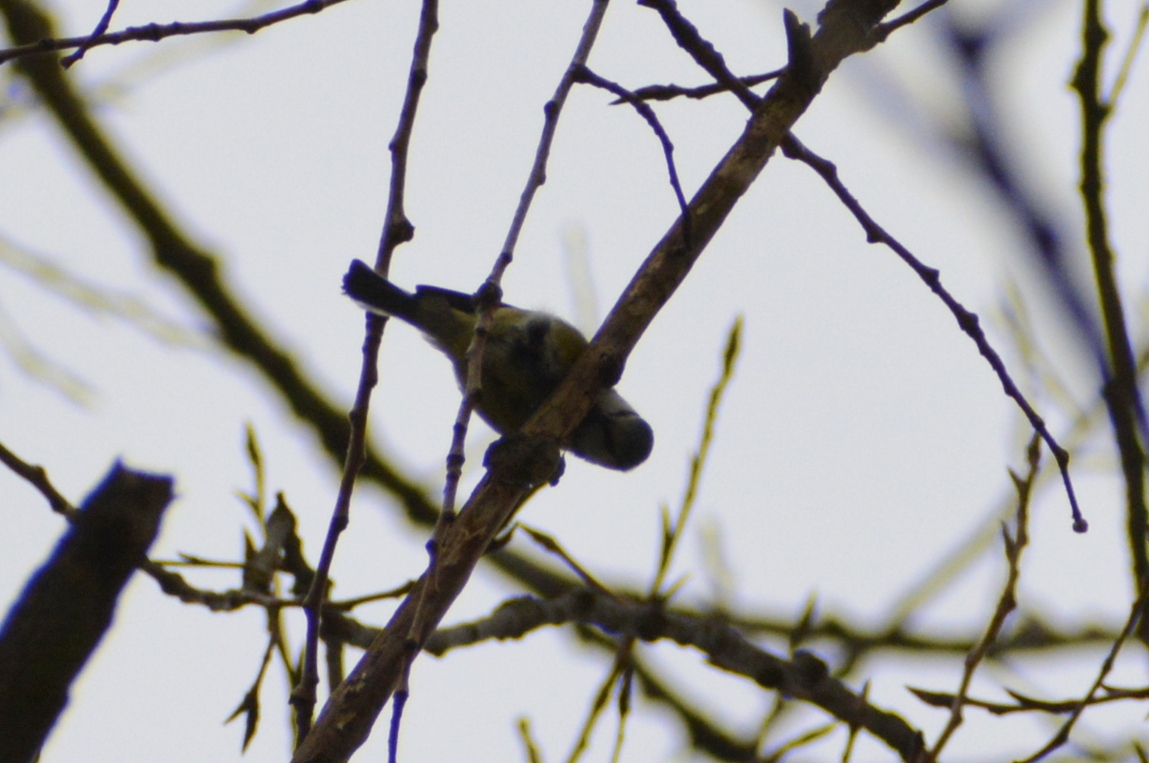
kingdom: Animalia
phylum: Chordata
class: Aves
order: Passeriformes
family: Paridae
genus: Cyanistes
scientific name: Cyanistes caeruleus
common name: Eurasian blue tit
